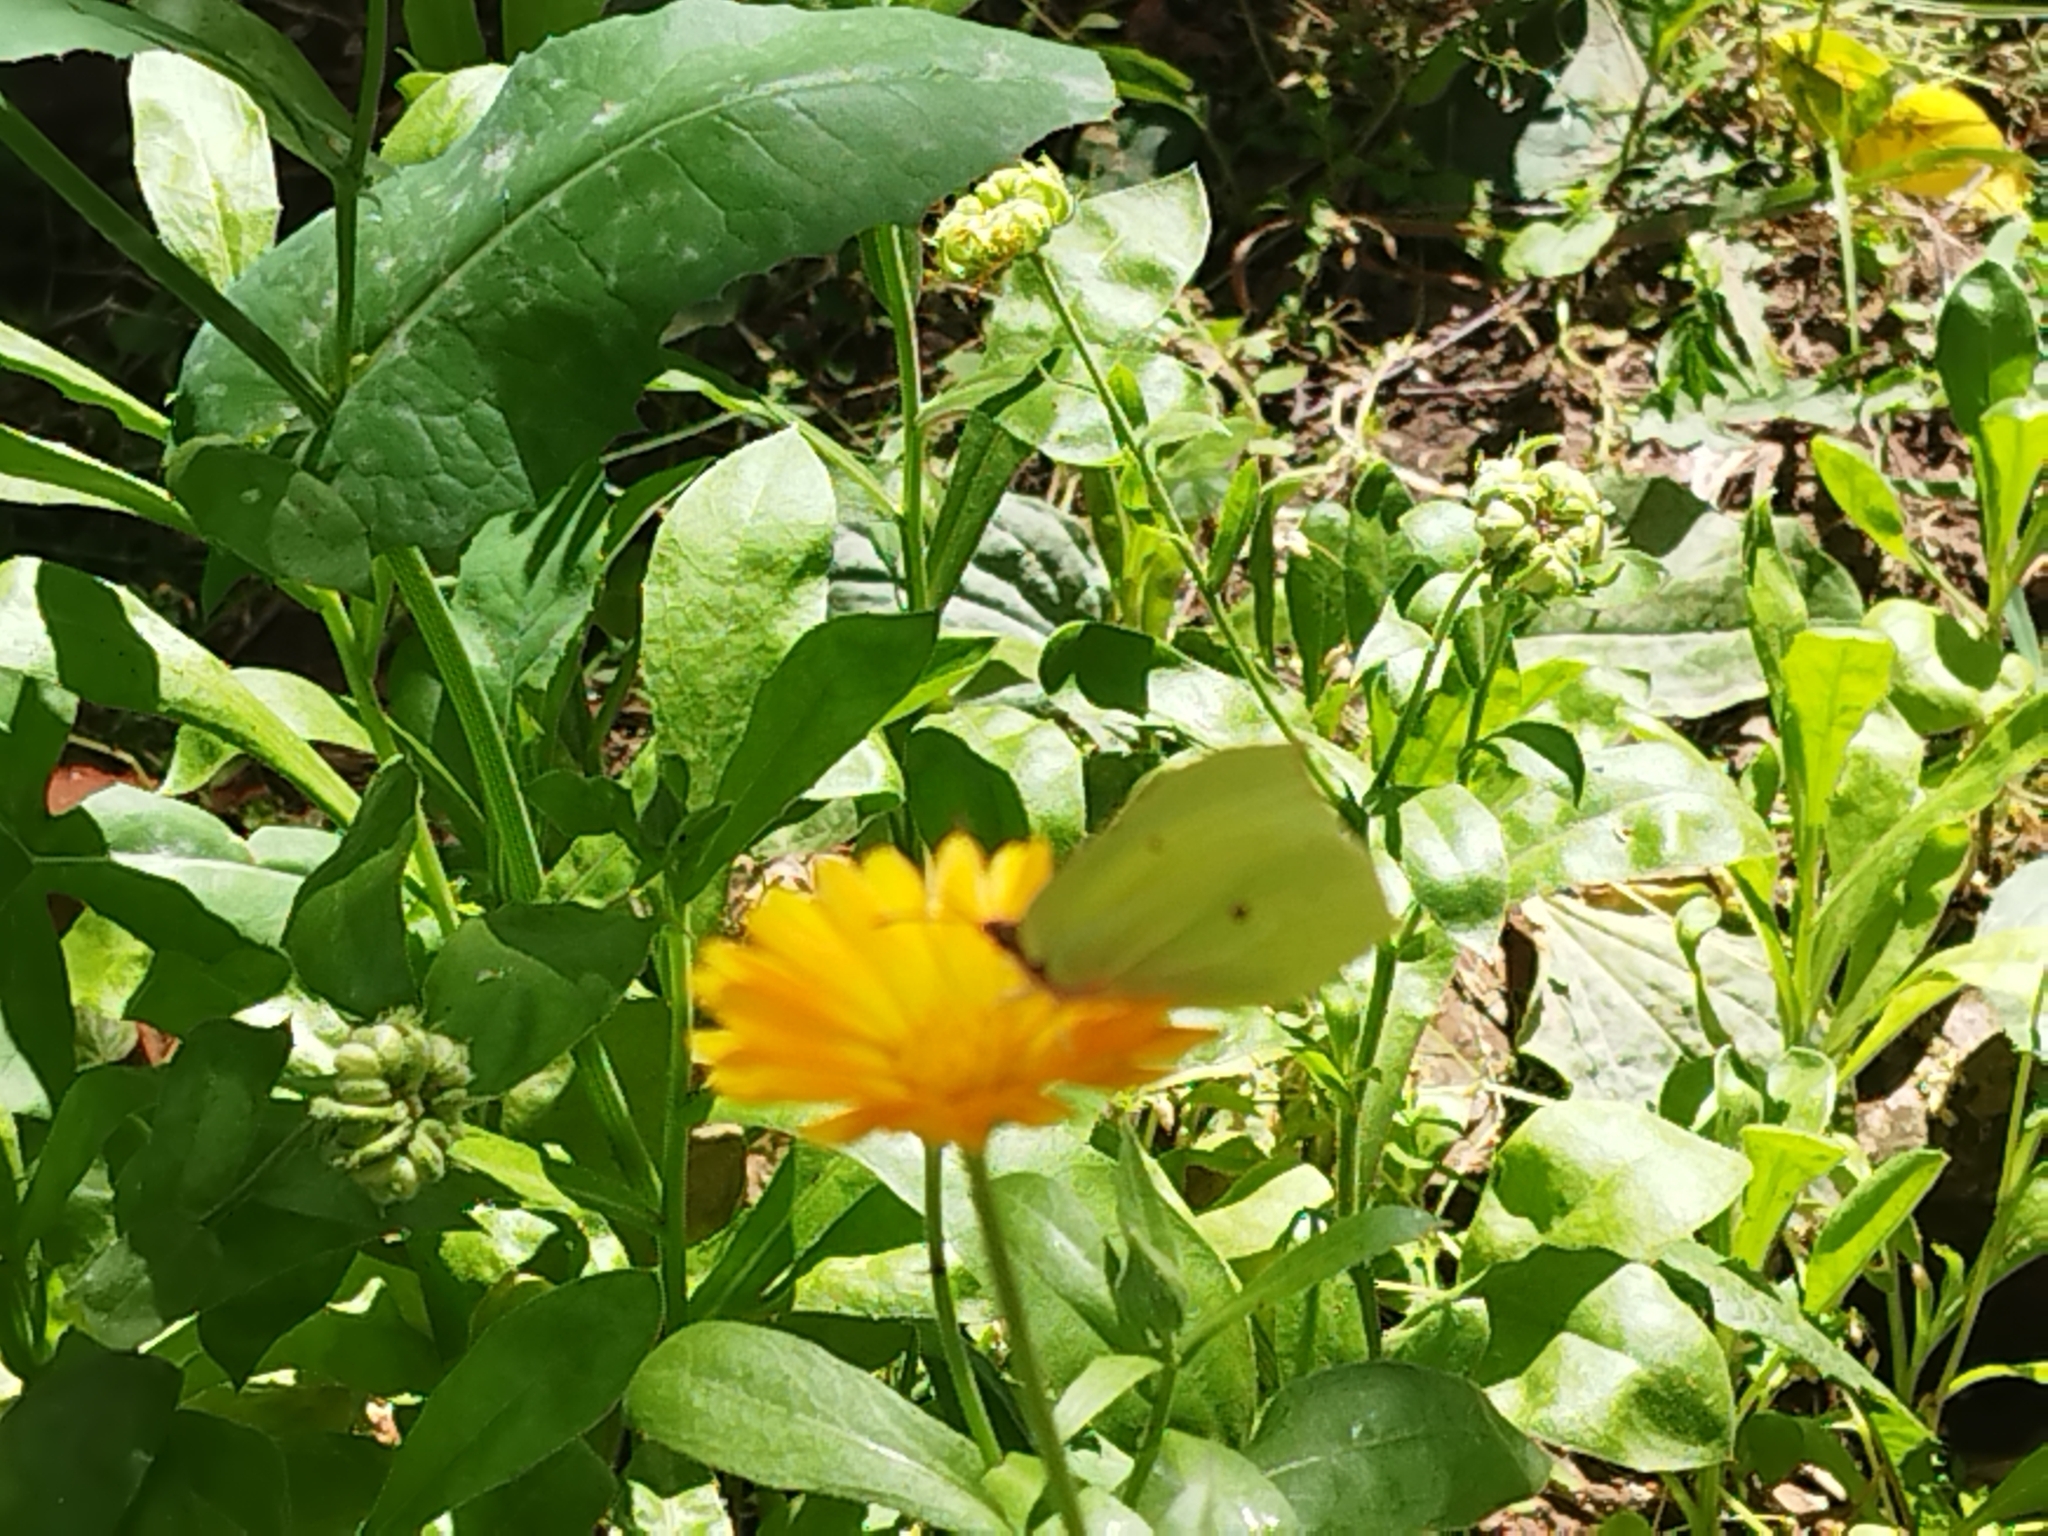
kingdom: Animalia
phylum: Arthropoda
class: Insecta
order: Lepidoptera
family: Pieridae
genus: Gonepteryx
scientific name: Gonepteryx rhamni
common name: Brimstone
